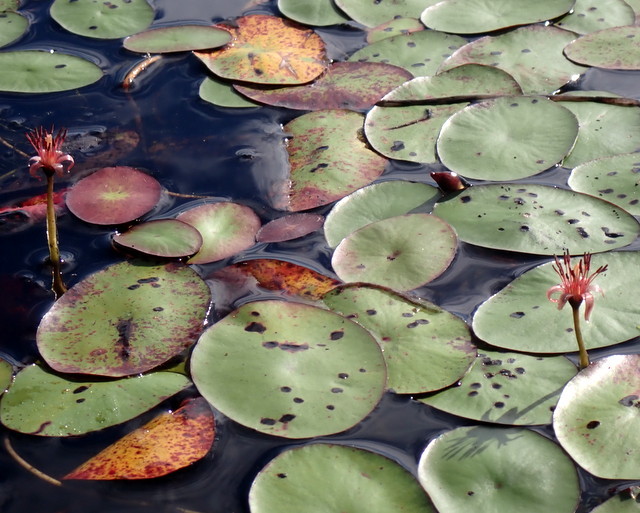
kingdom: Plantae
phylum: Tracheophyta
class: Magnoliopsida
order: Nymphaeales
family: Cabombaceae
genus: Brasenia
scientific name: Brasenia schreberi
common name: Water-shield
